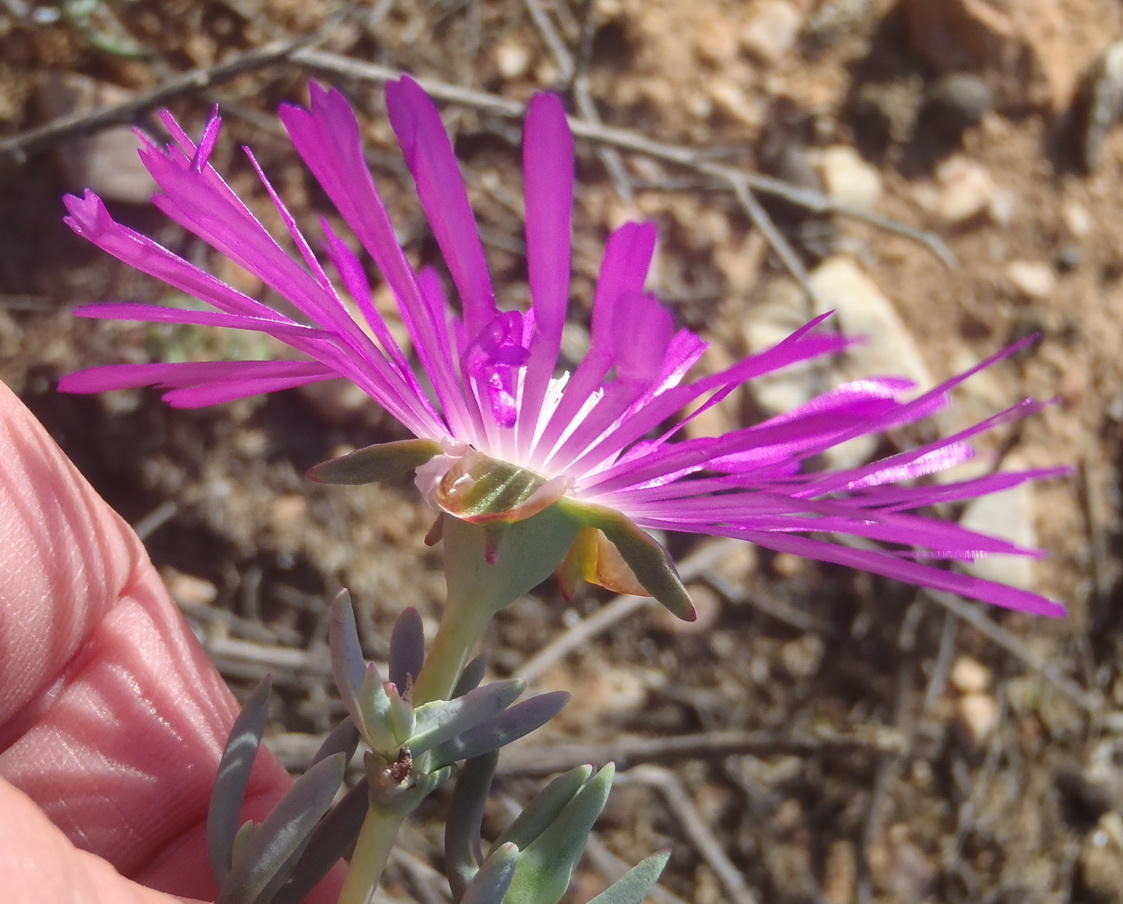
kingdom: Plantae
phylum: Tracheophyta
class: Magnoliopsida
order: Caryophyllales
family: Aizoaceae
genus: Lampranthus
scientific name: Lampranthus affinis
